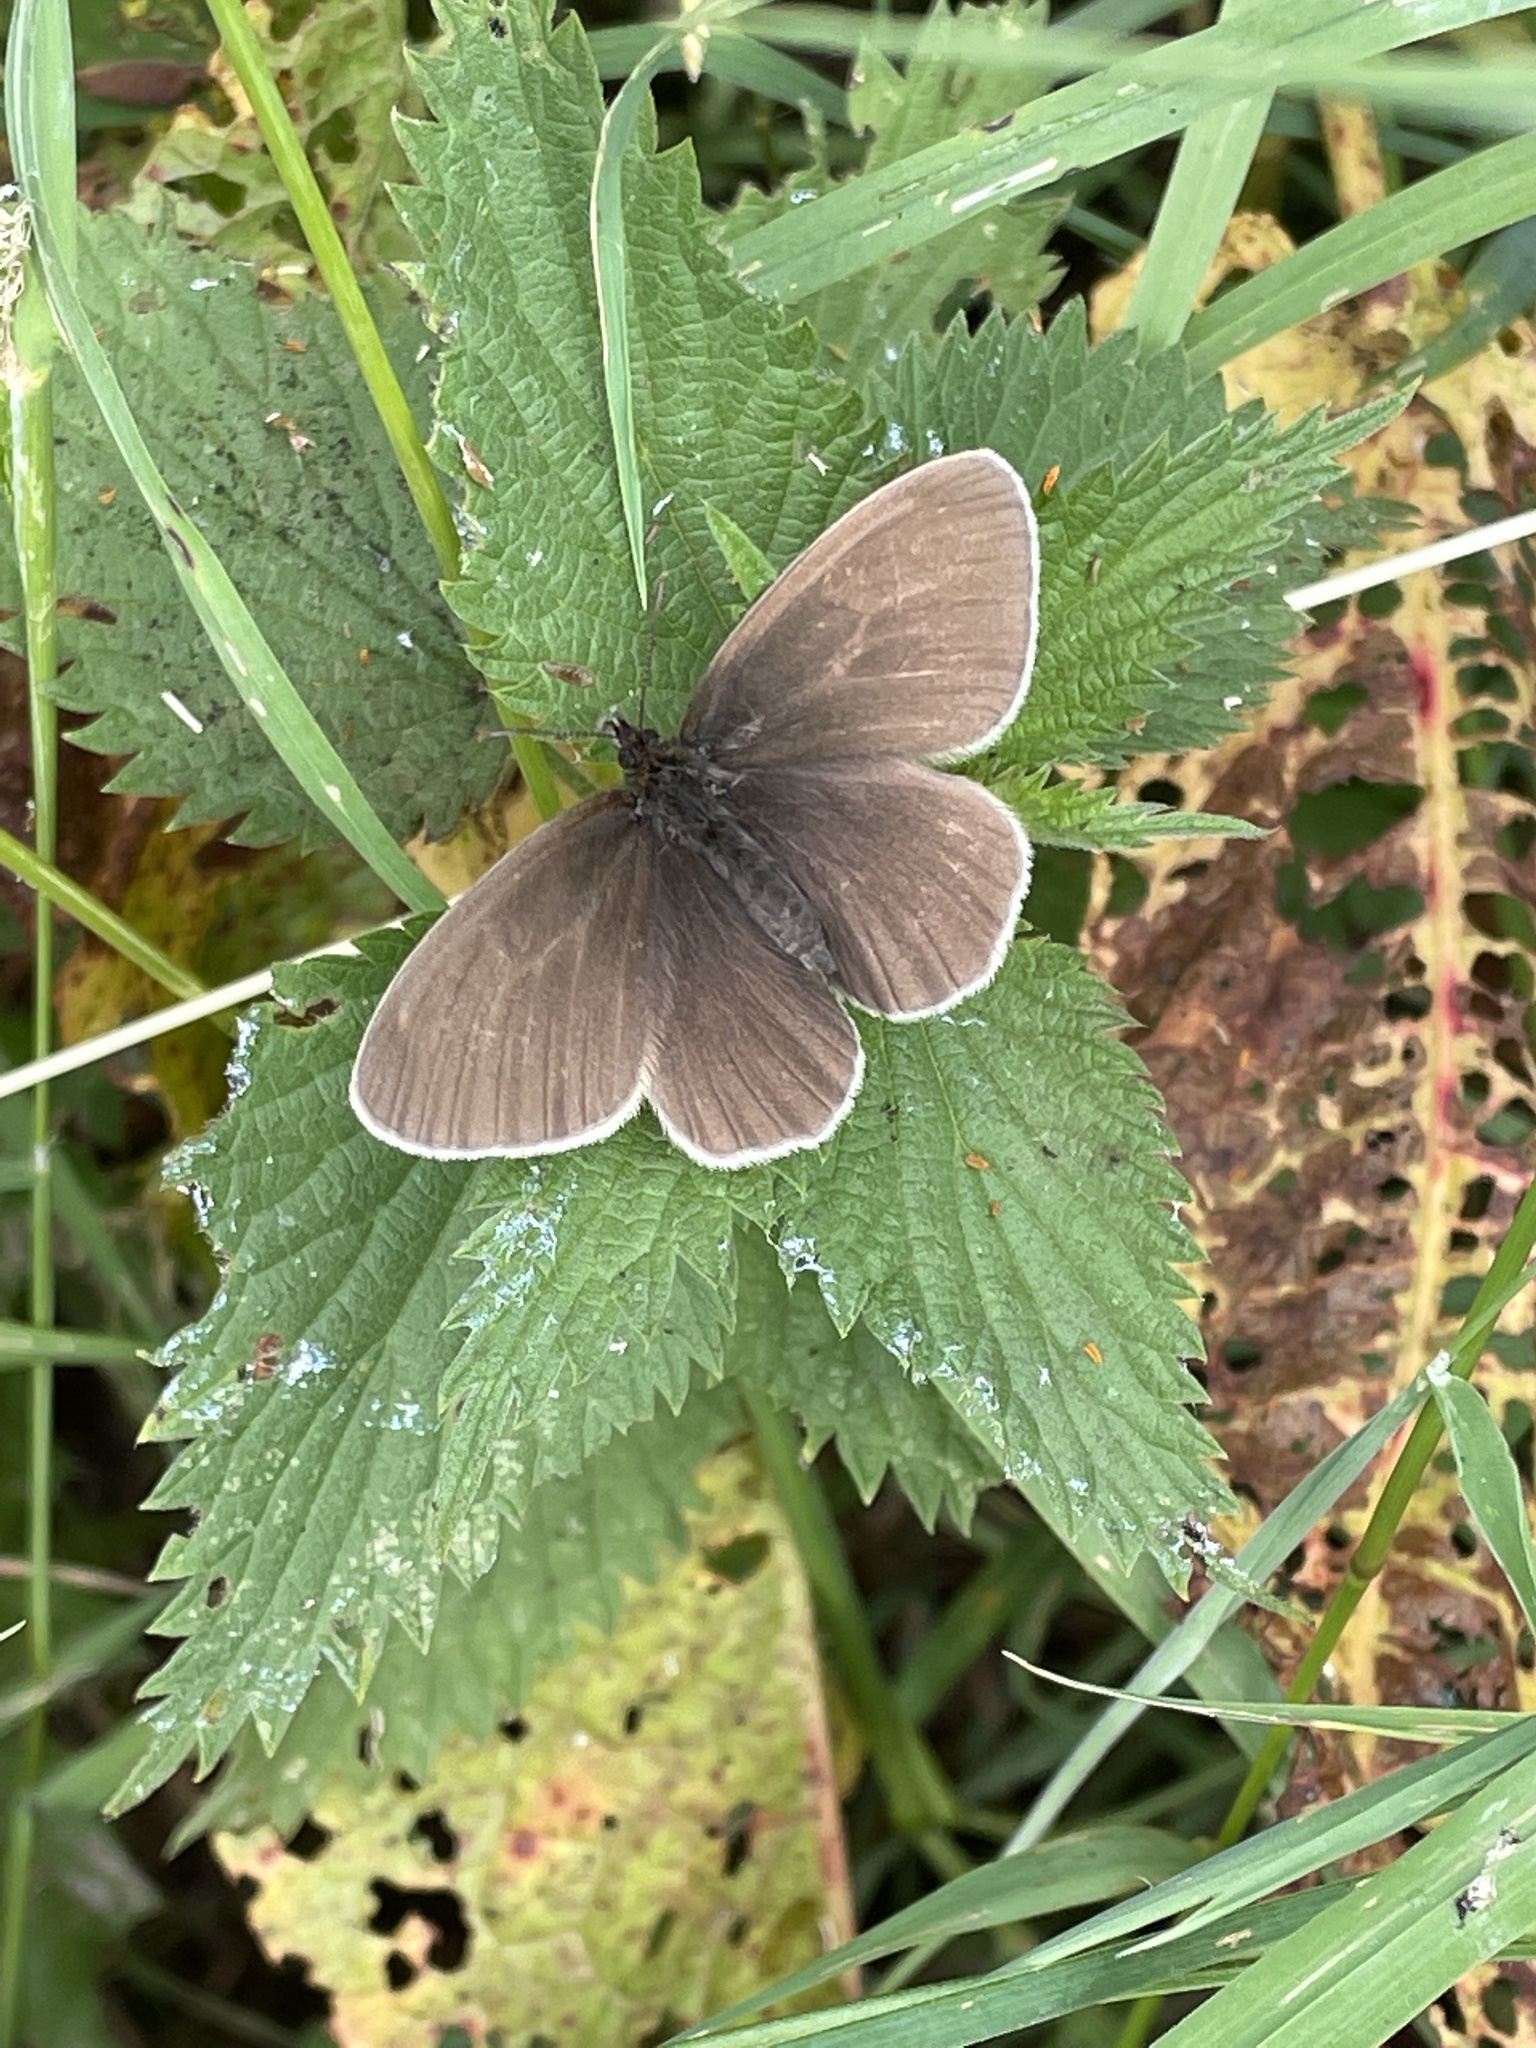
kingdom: Animalia
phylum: Arthropoda
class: Insecta
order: Lepidoptera
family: Nymphalidae
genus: Aphantopus
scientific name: Aphantopus hyperantus
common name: Ringlet
